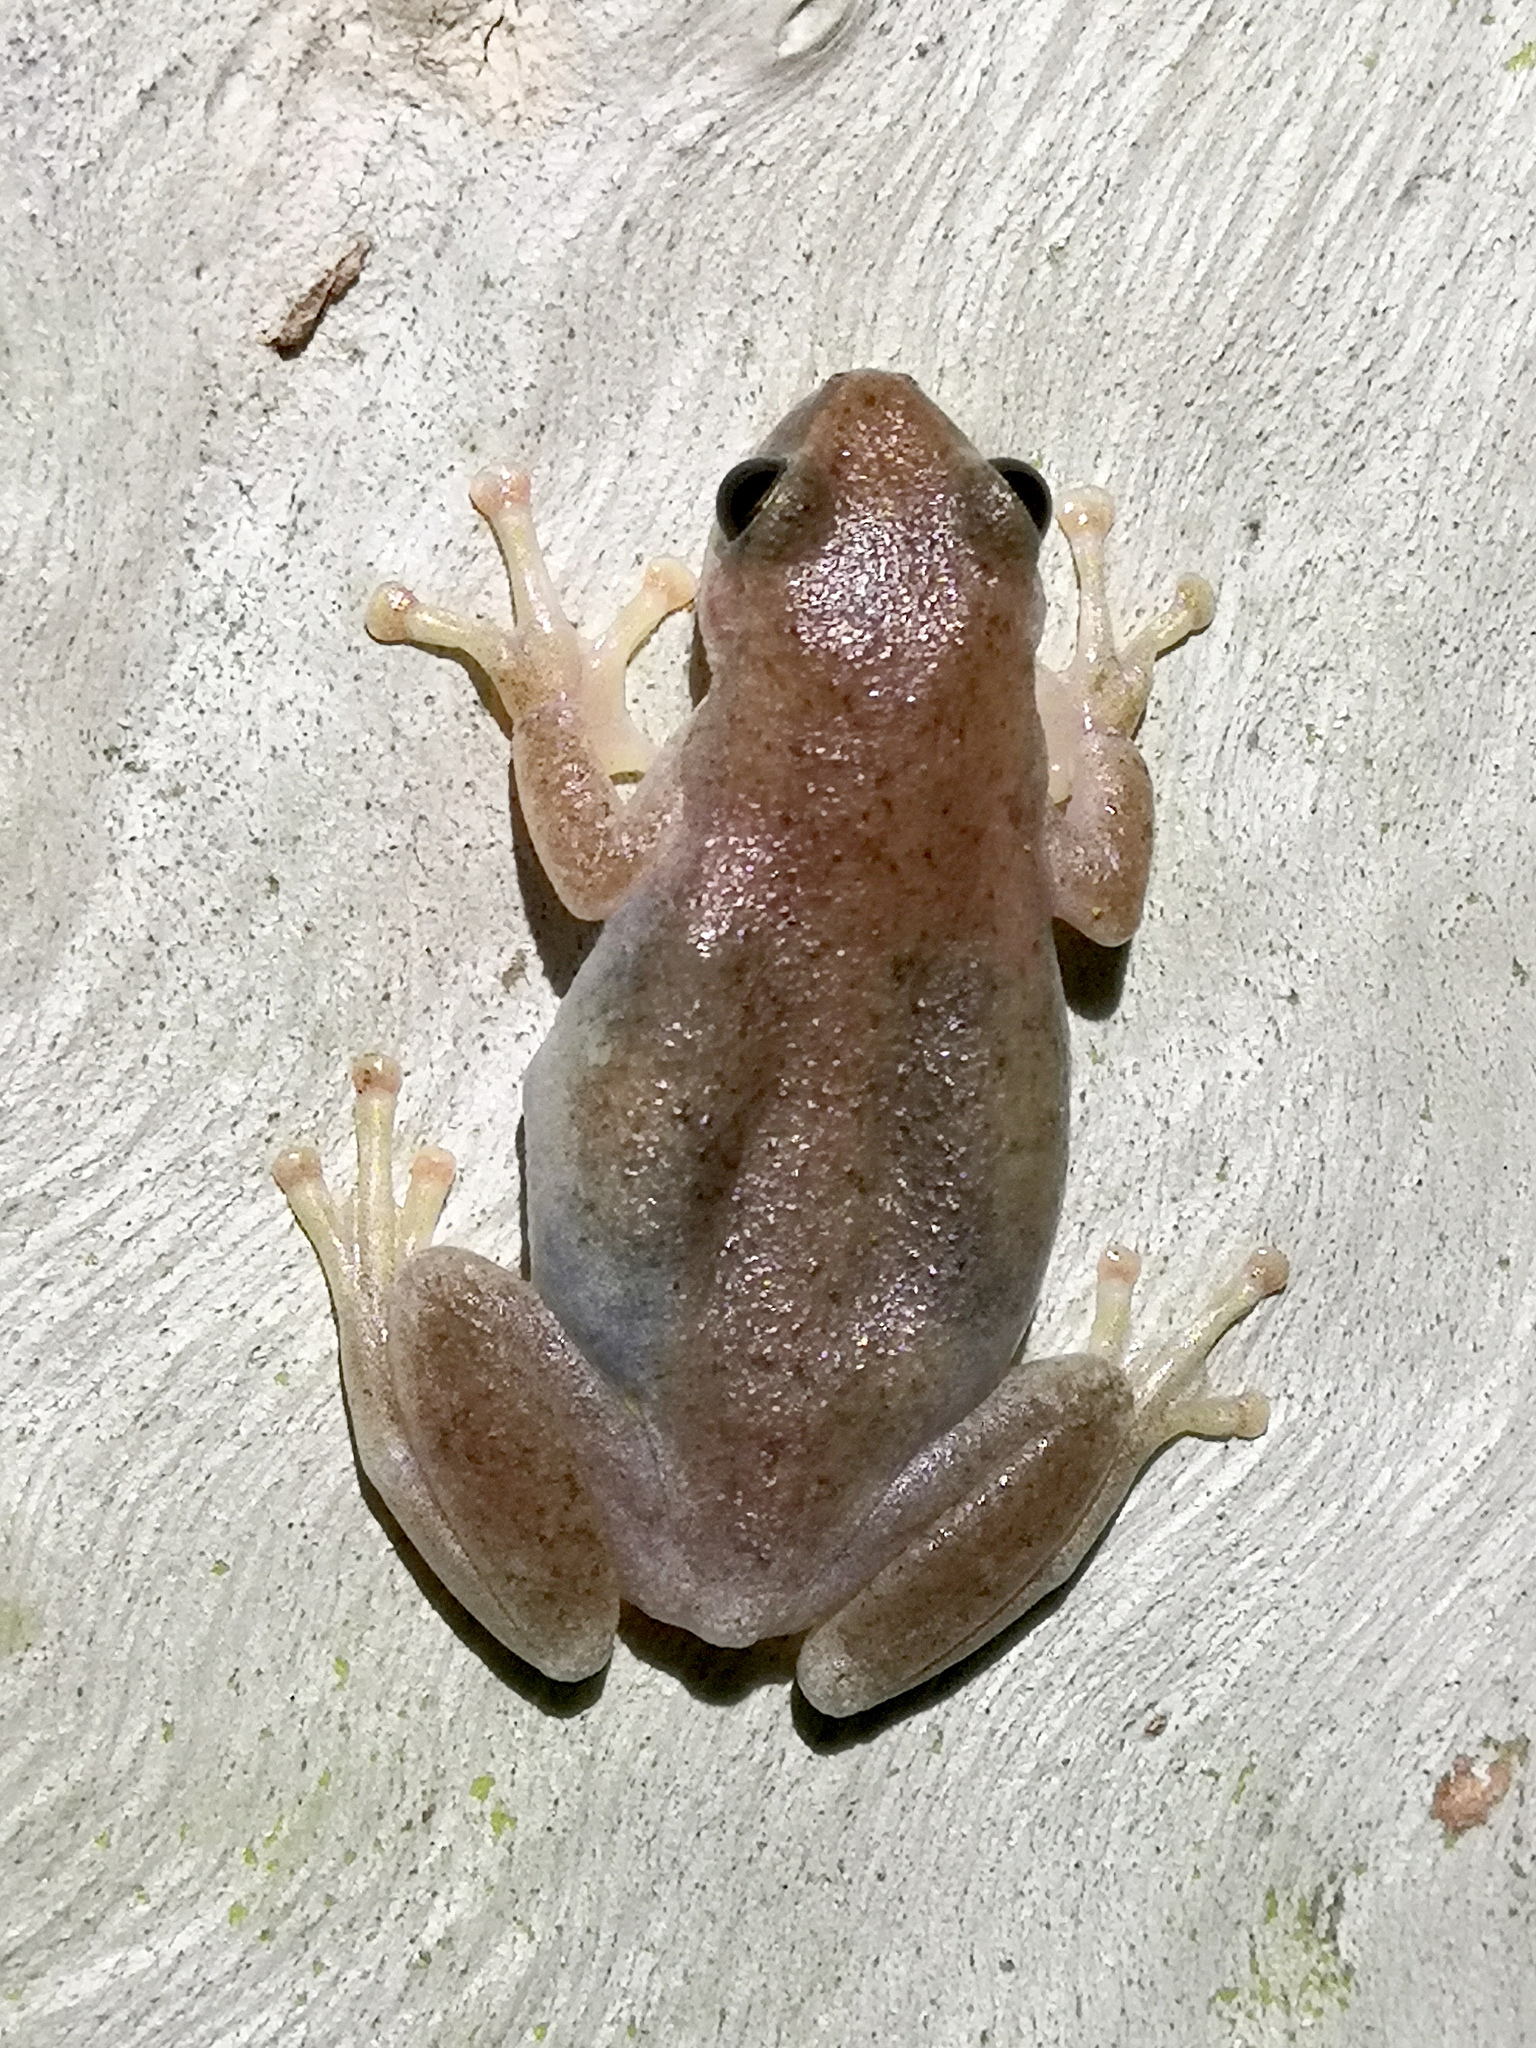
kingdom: Animalia
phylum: Chordata
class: Amphibia
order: Anura
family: Pelodryadidae
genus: Litoria
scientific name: Litoria rubella
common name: Desert tree frog
